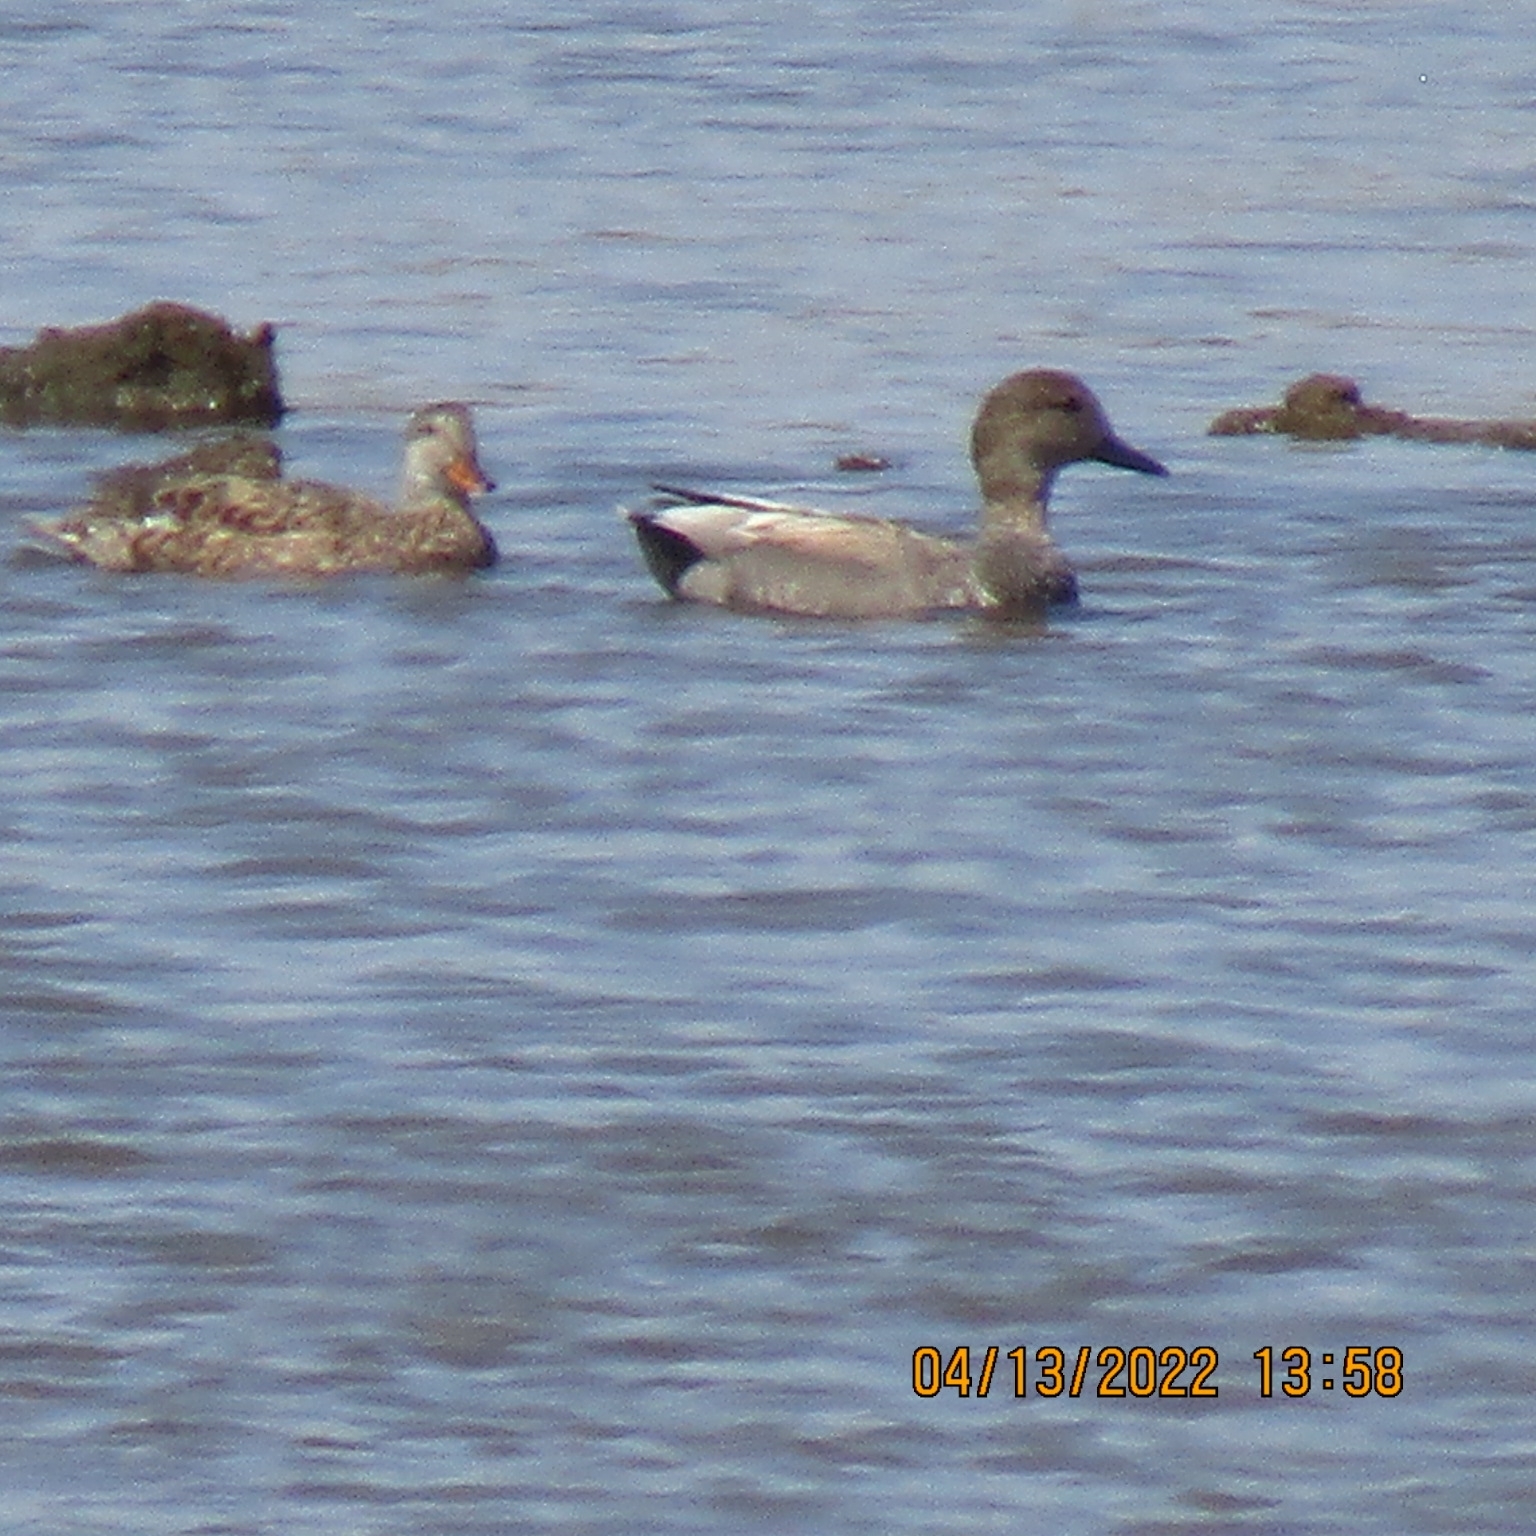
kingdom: Animalia
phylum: Chordata
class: Aves
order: Anseriformes
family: Anatidae
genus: Mareca
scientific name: Mareca strepera
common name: Gadwall
